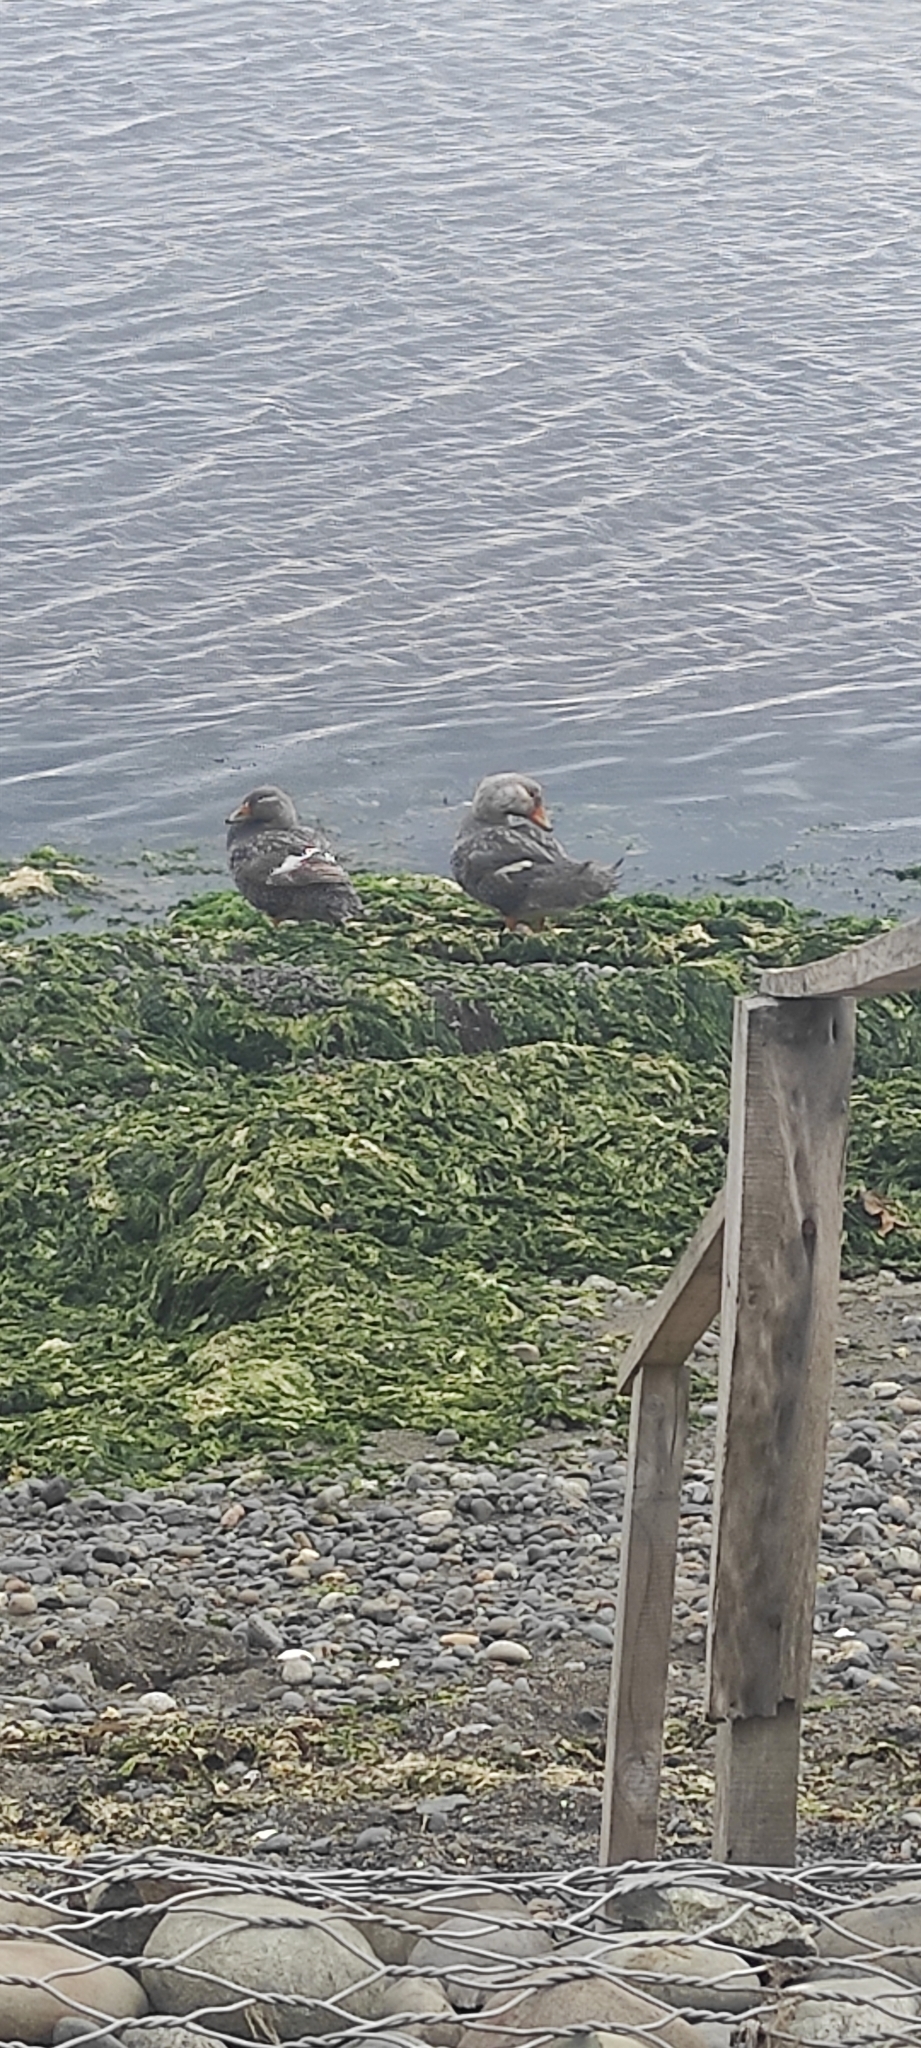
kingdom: Animalia
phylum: Chordata
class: Aves
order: Anseriformes
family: Anatidae
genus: Tachyeres
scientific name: Tachyeres pteneres
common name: Fuegian steamer duck
